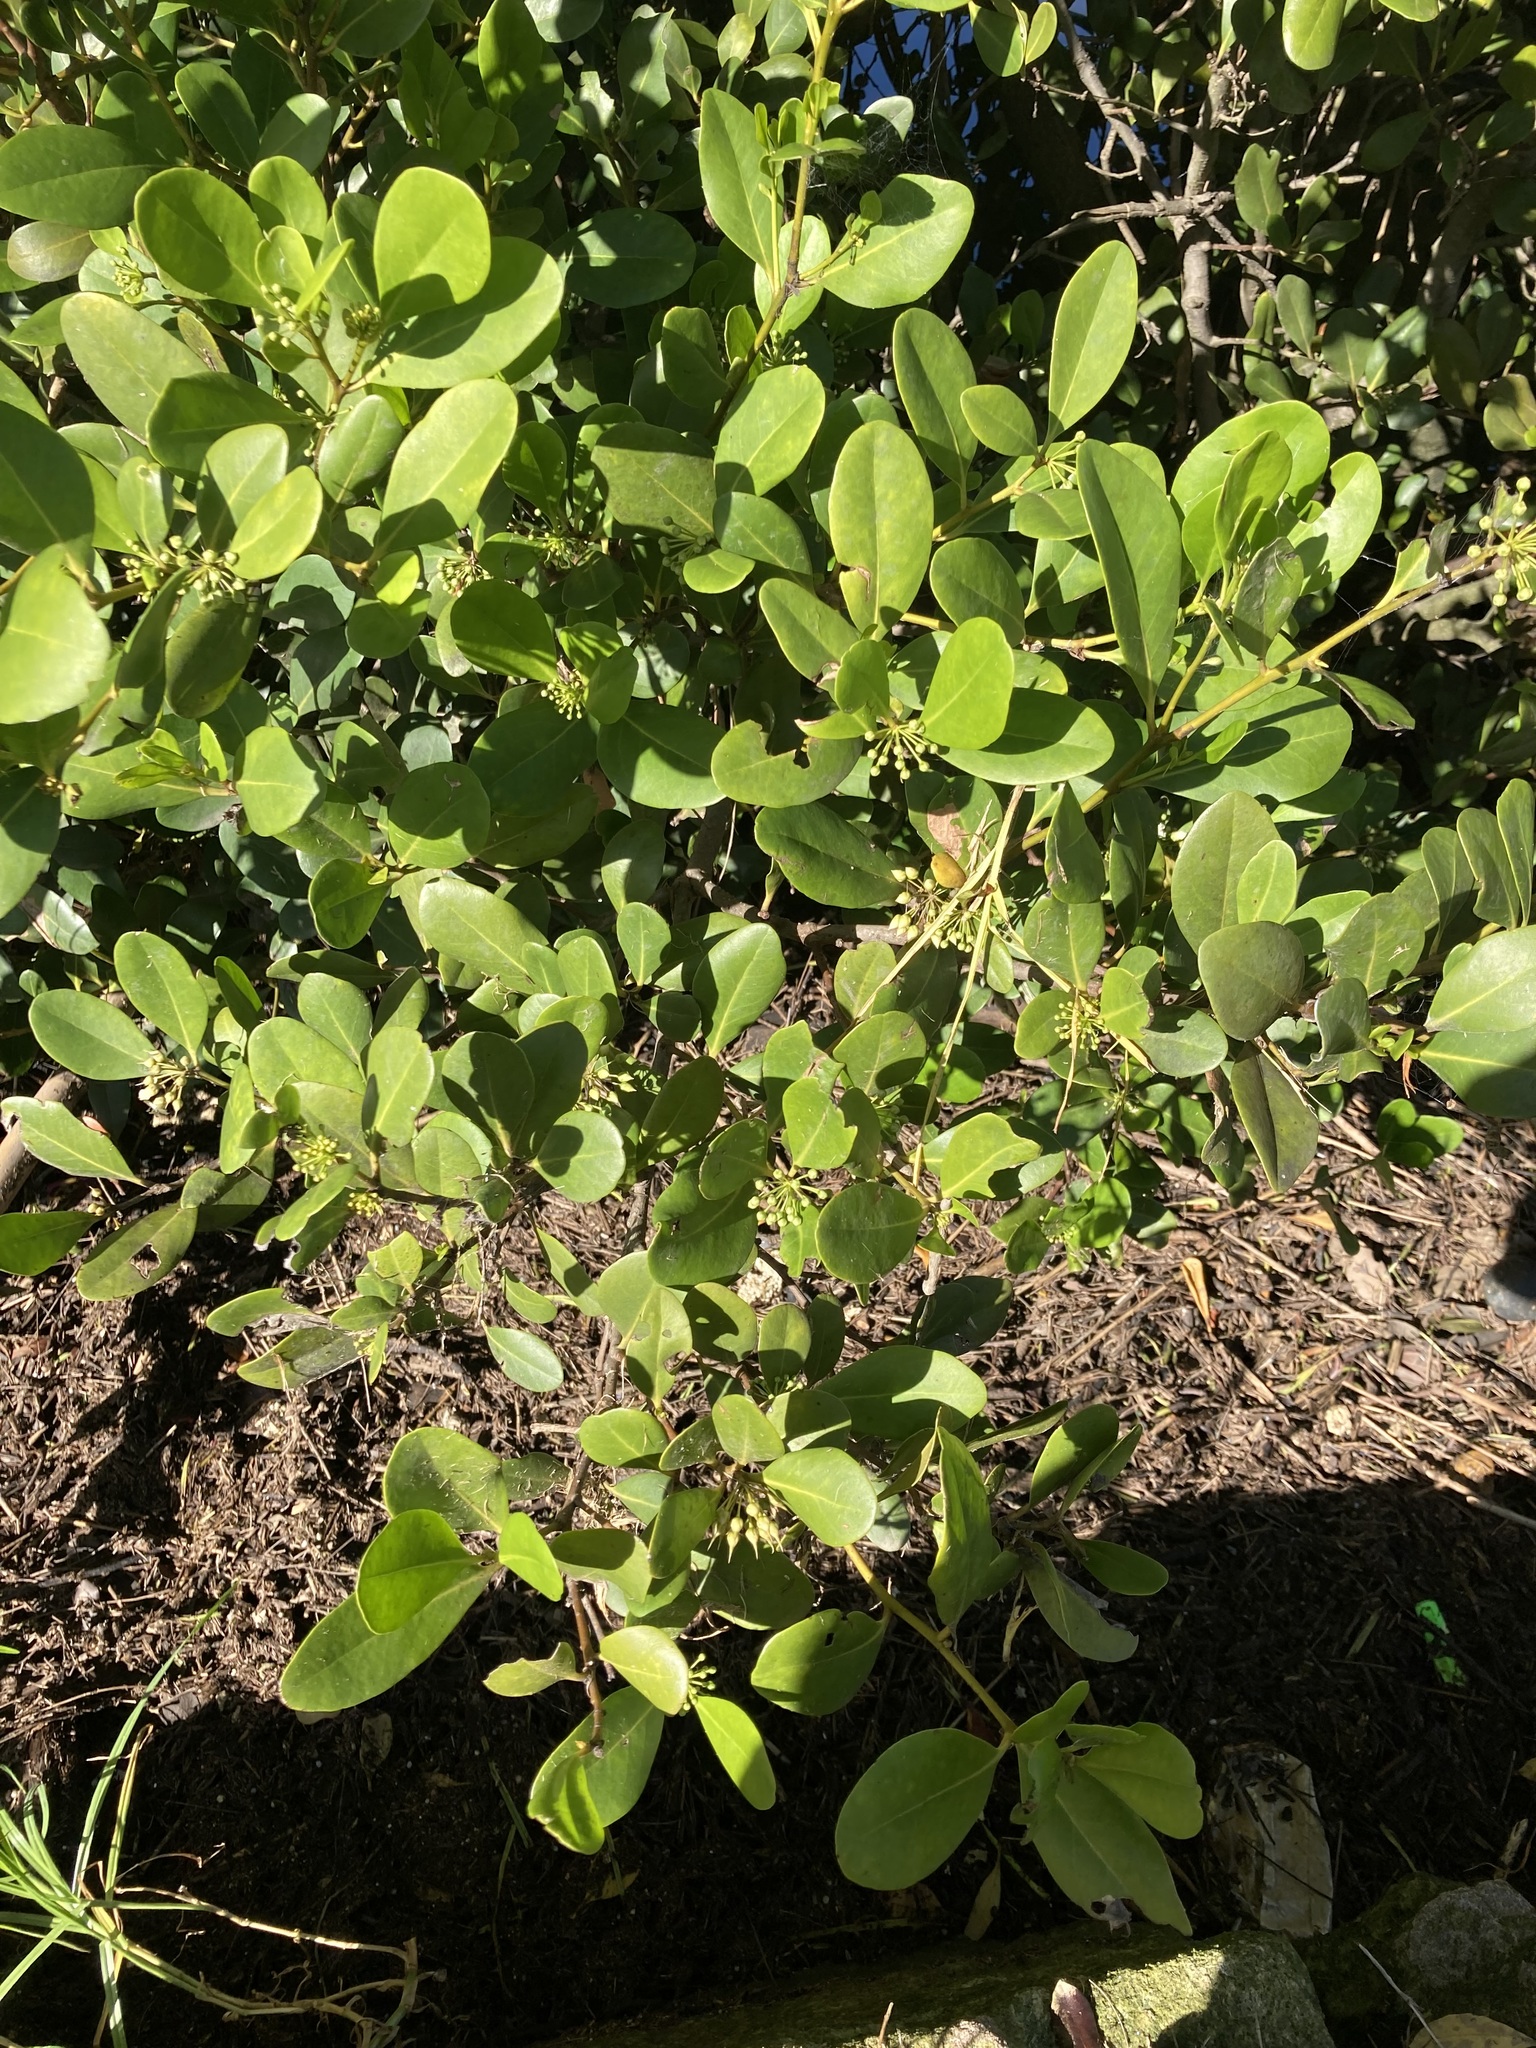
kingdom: Plantae
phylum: Tracheophyta
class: Magnoliopsida
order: Ericales
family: Primulaceae
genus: Aegiceras
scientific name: Aegiceras corniculatum
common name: River mangrove
